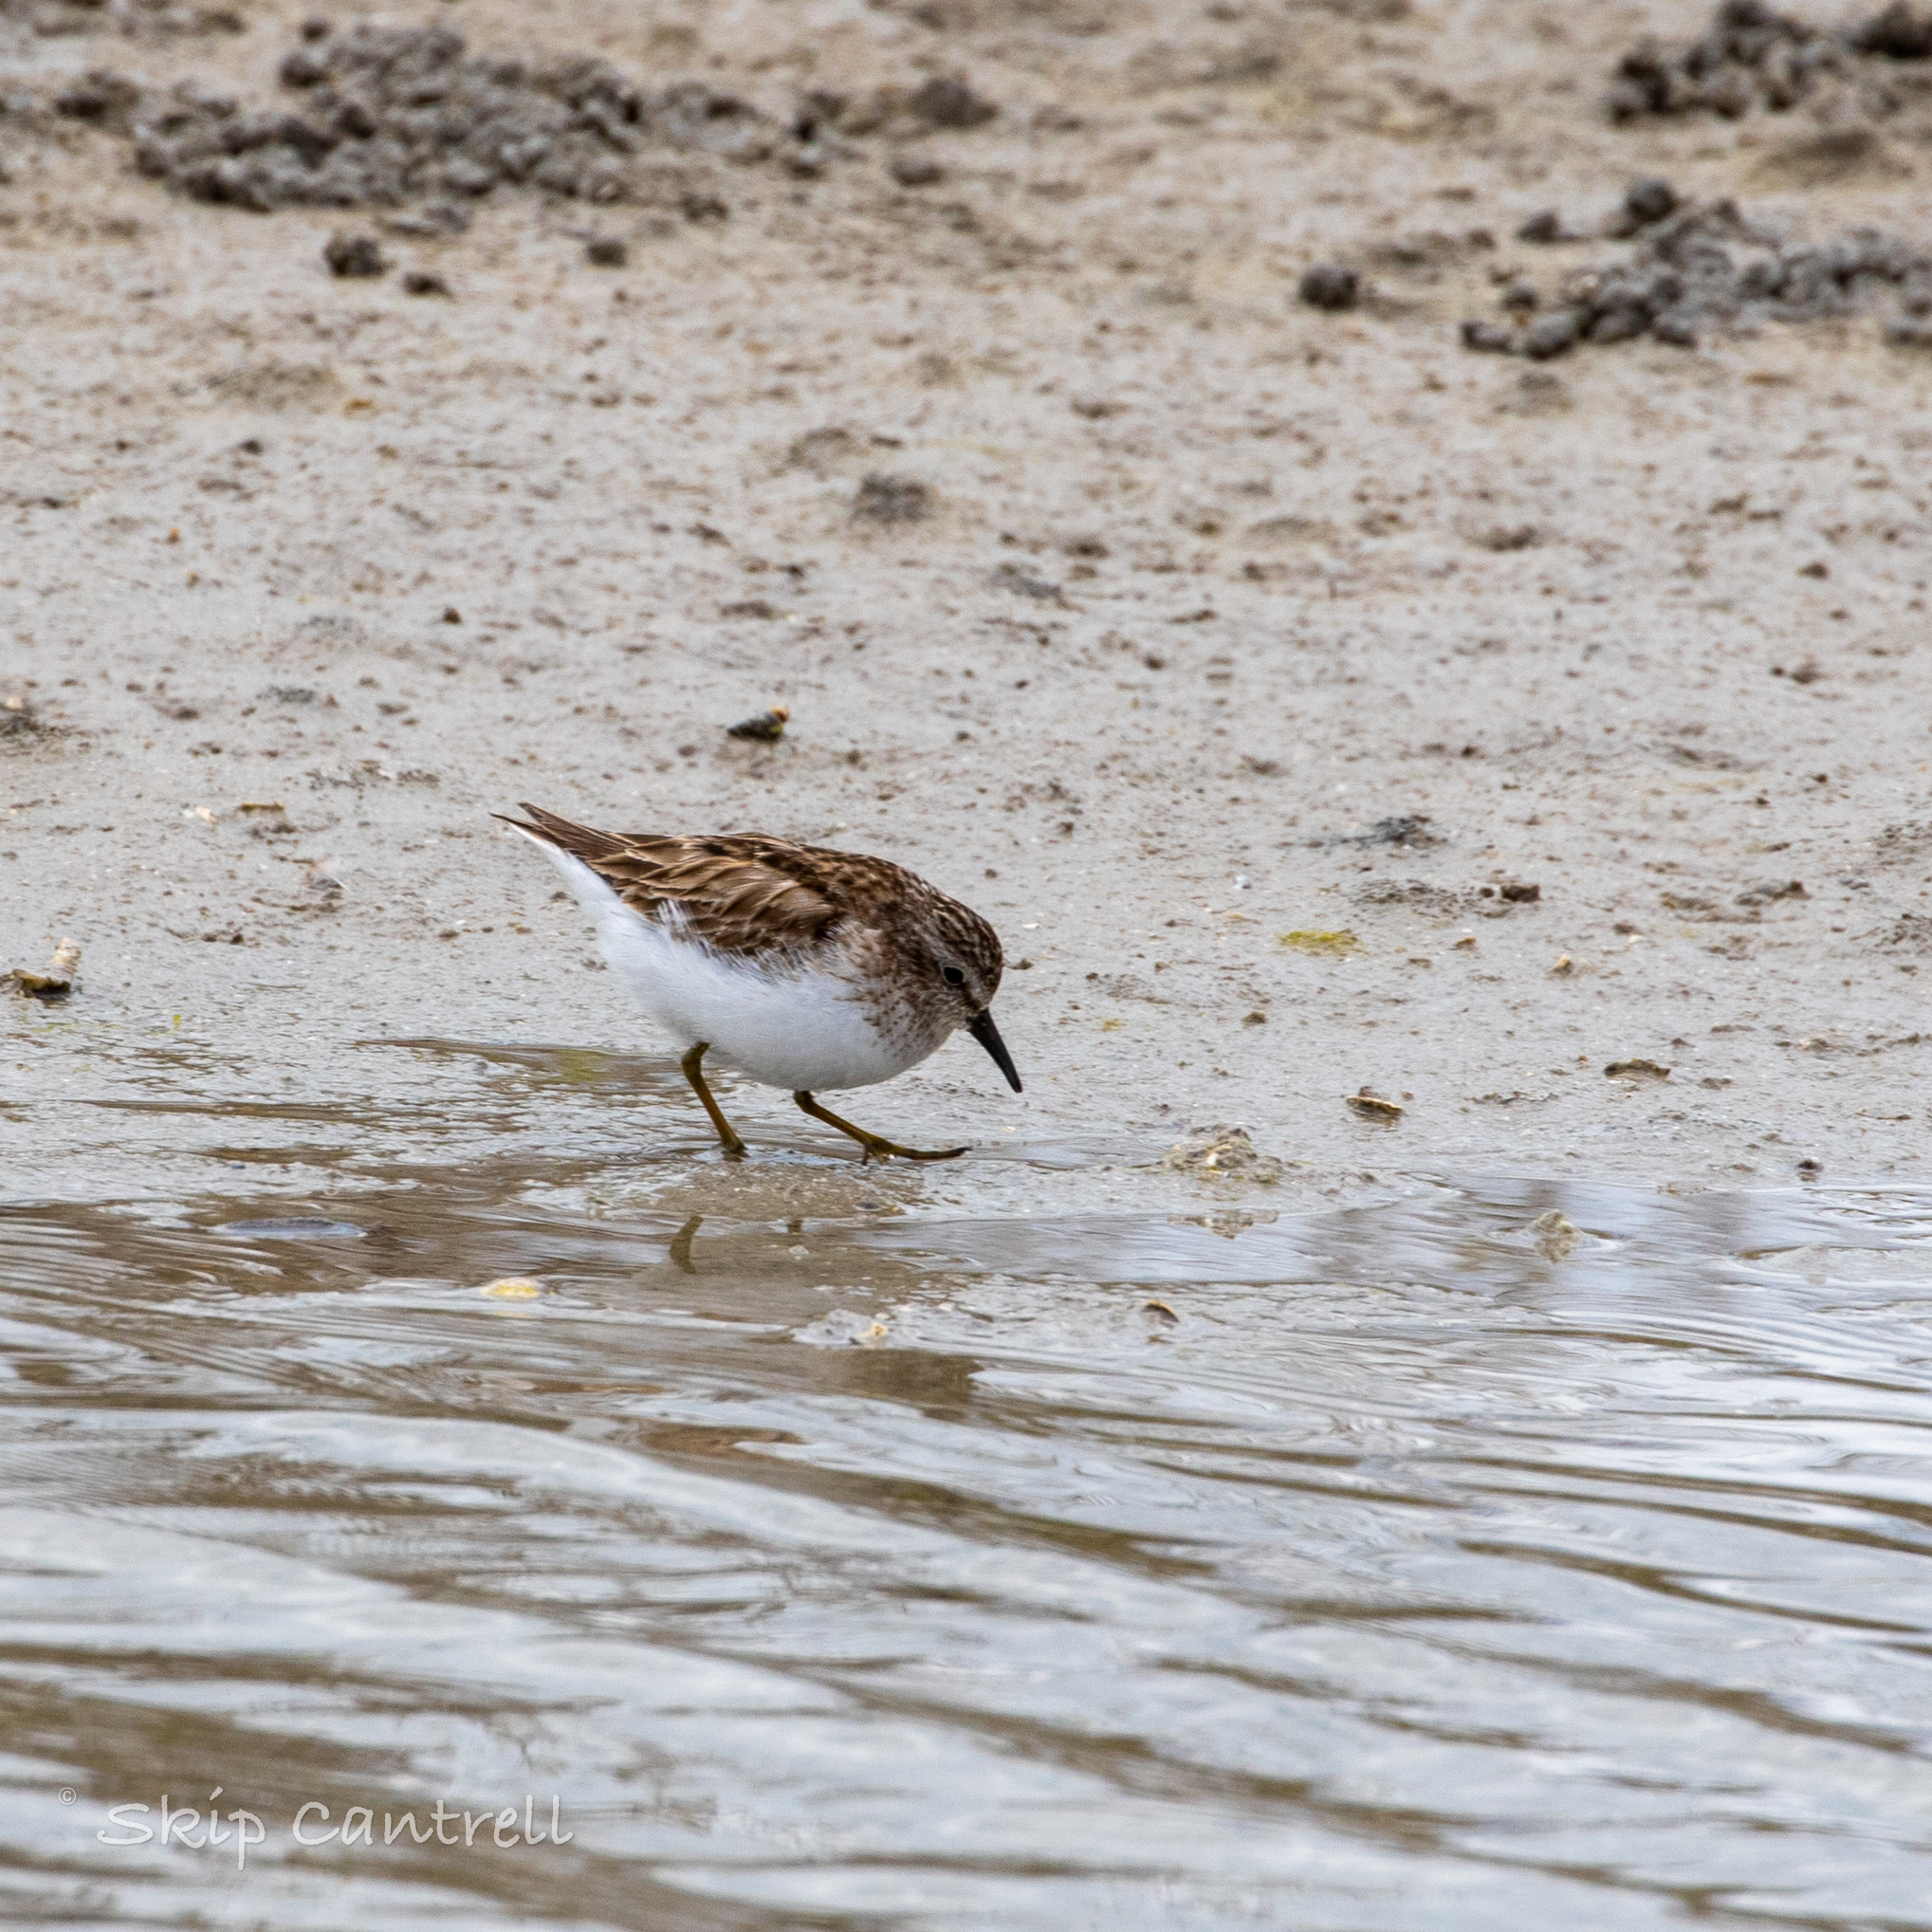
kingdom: Animalia
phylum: Chordata
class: Aves
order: Charadriiformes
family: Scolopacidae
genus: Calidris
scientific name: Calidris minutilla
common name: Least sandpiper
